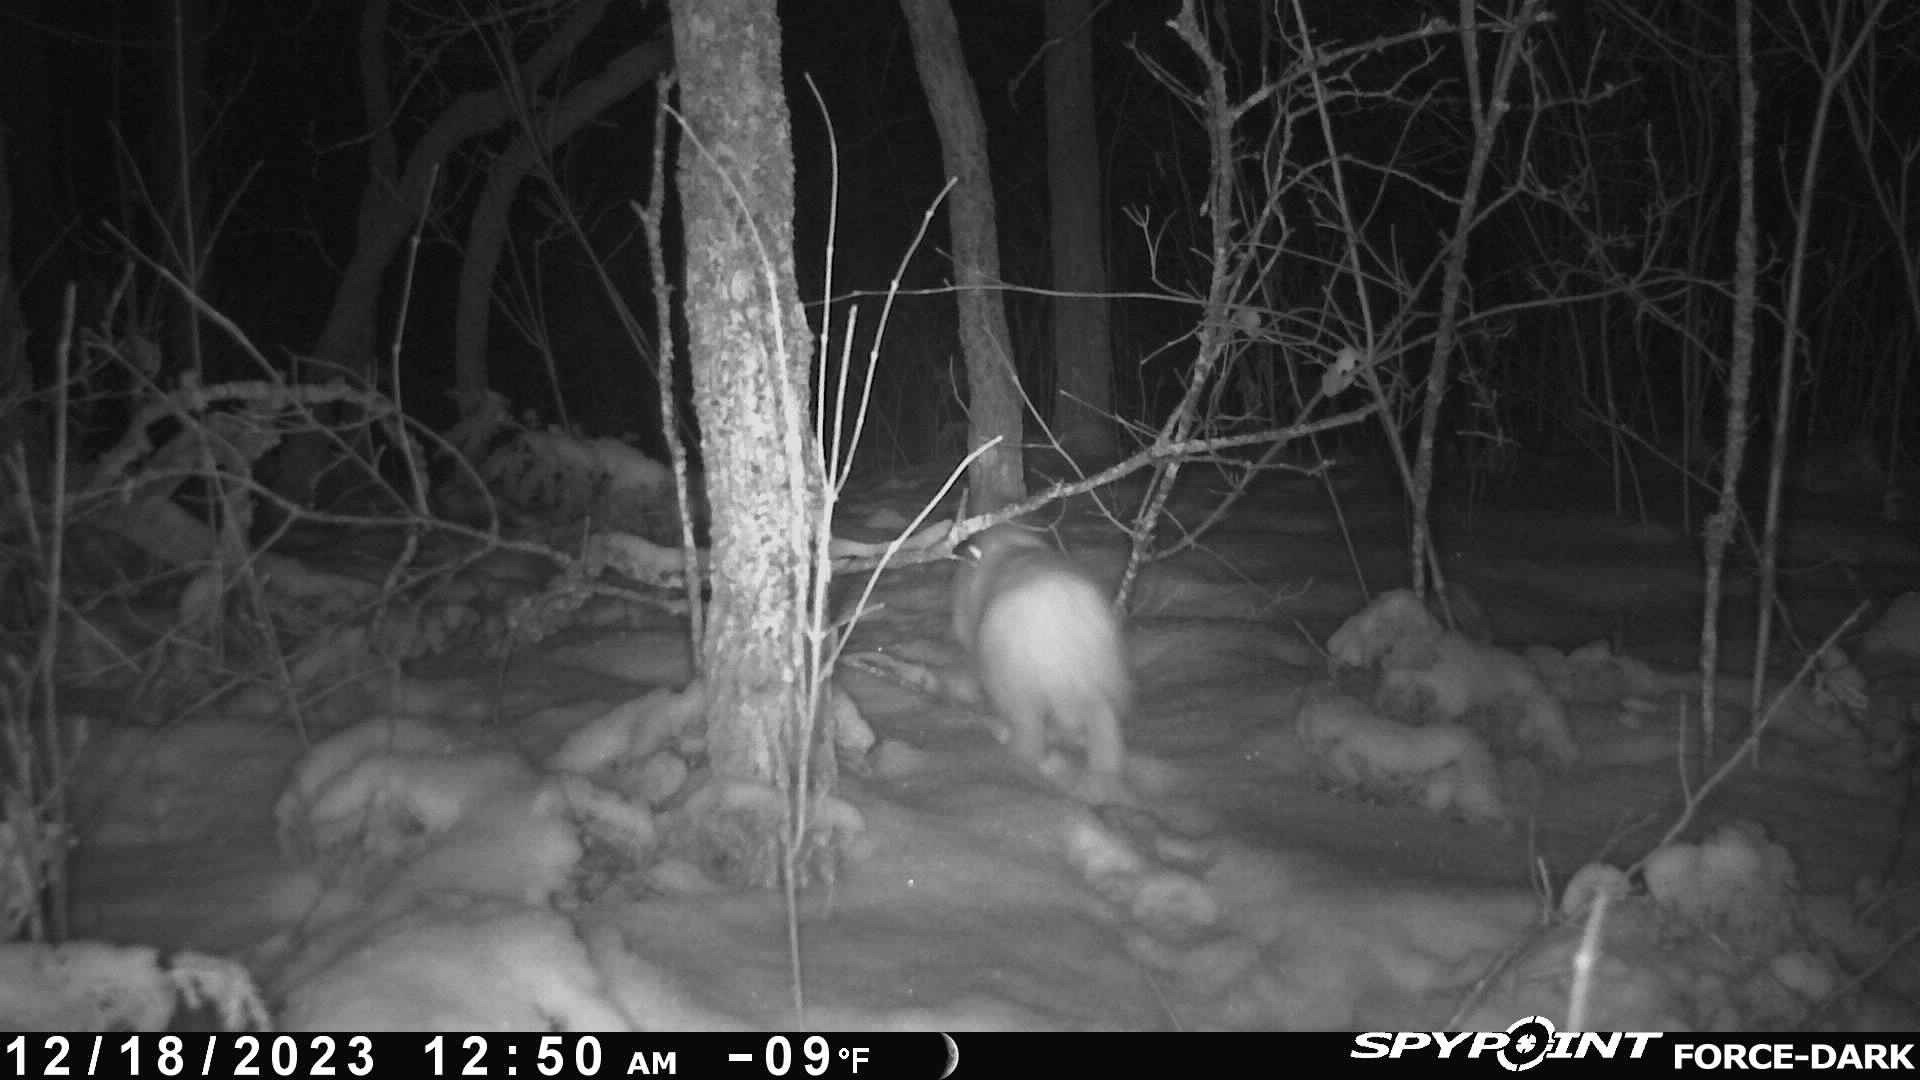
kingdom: Animalia
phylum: Chordata
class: Mammalia
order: Lagomorpha
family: Leporidae
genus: Lepus
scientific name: Lepus americanus
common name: Snowshoe hare
